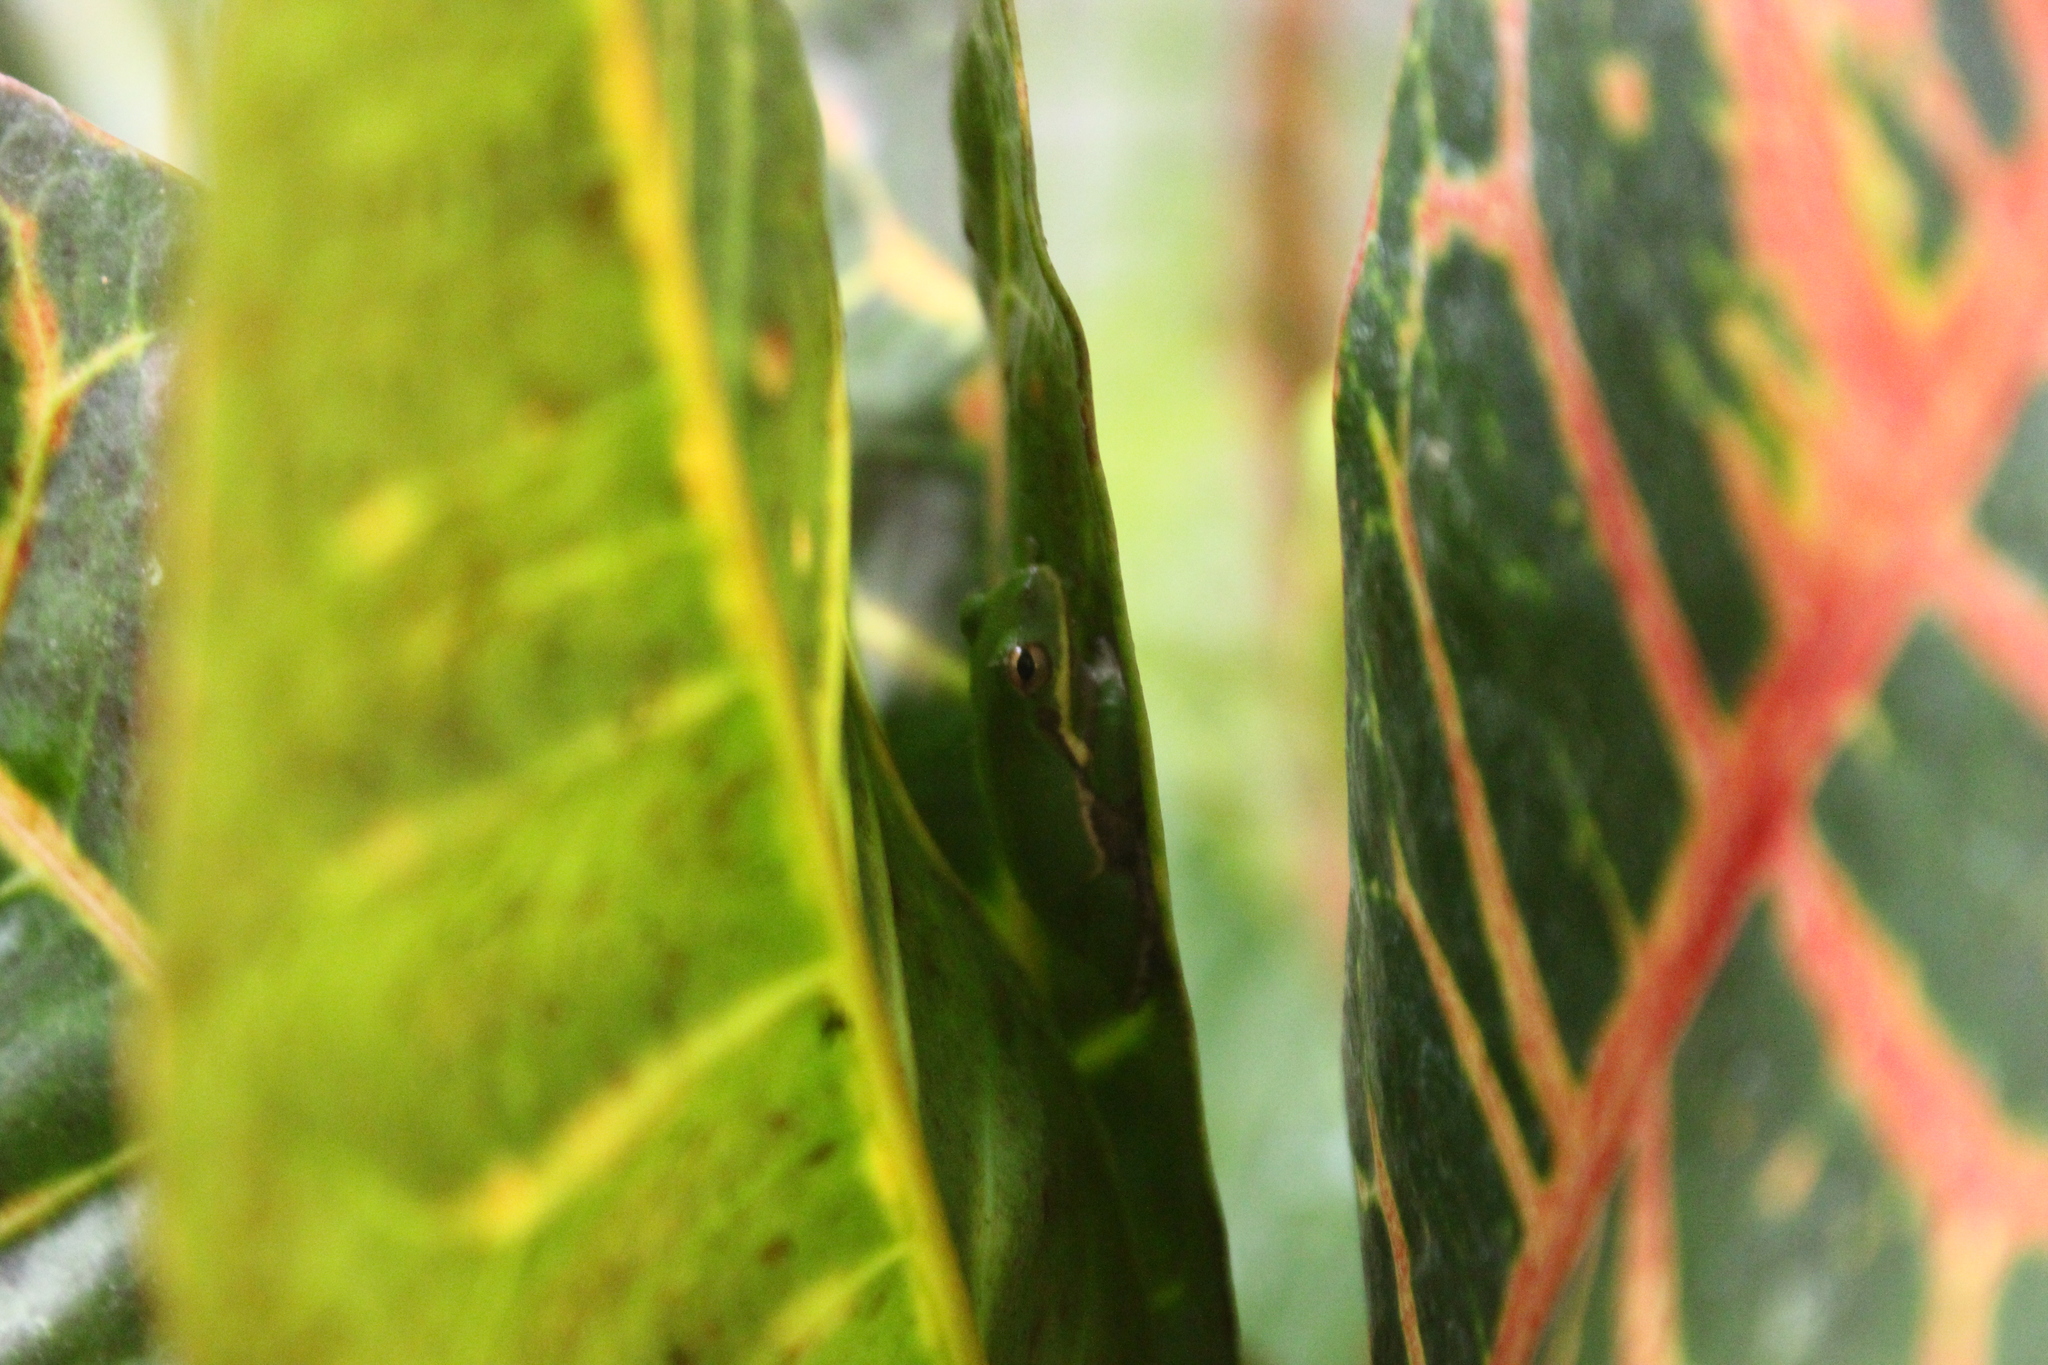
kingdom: Animalia
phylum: Chordata
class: Amphibia
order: Anura
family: Hylidae
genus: Dryophytes
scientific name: Dryophytes squirellus
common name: Squirrel treefrog
